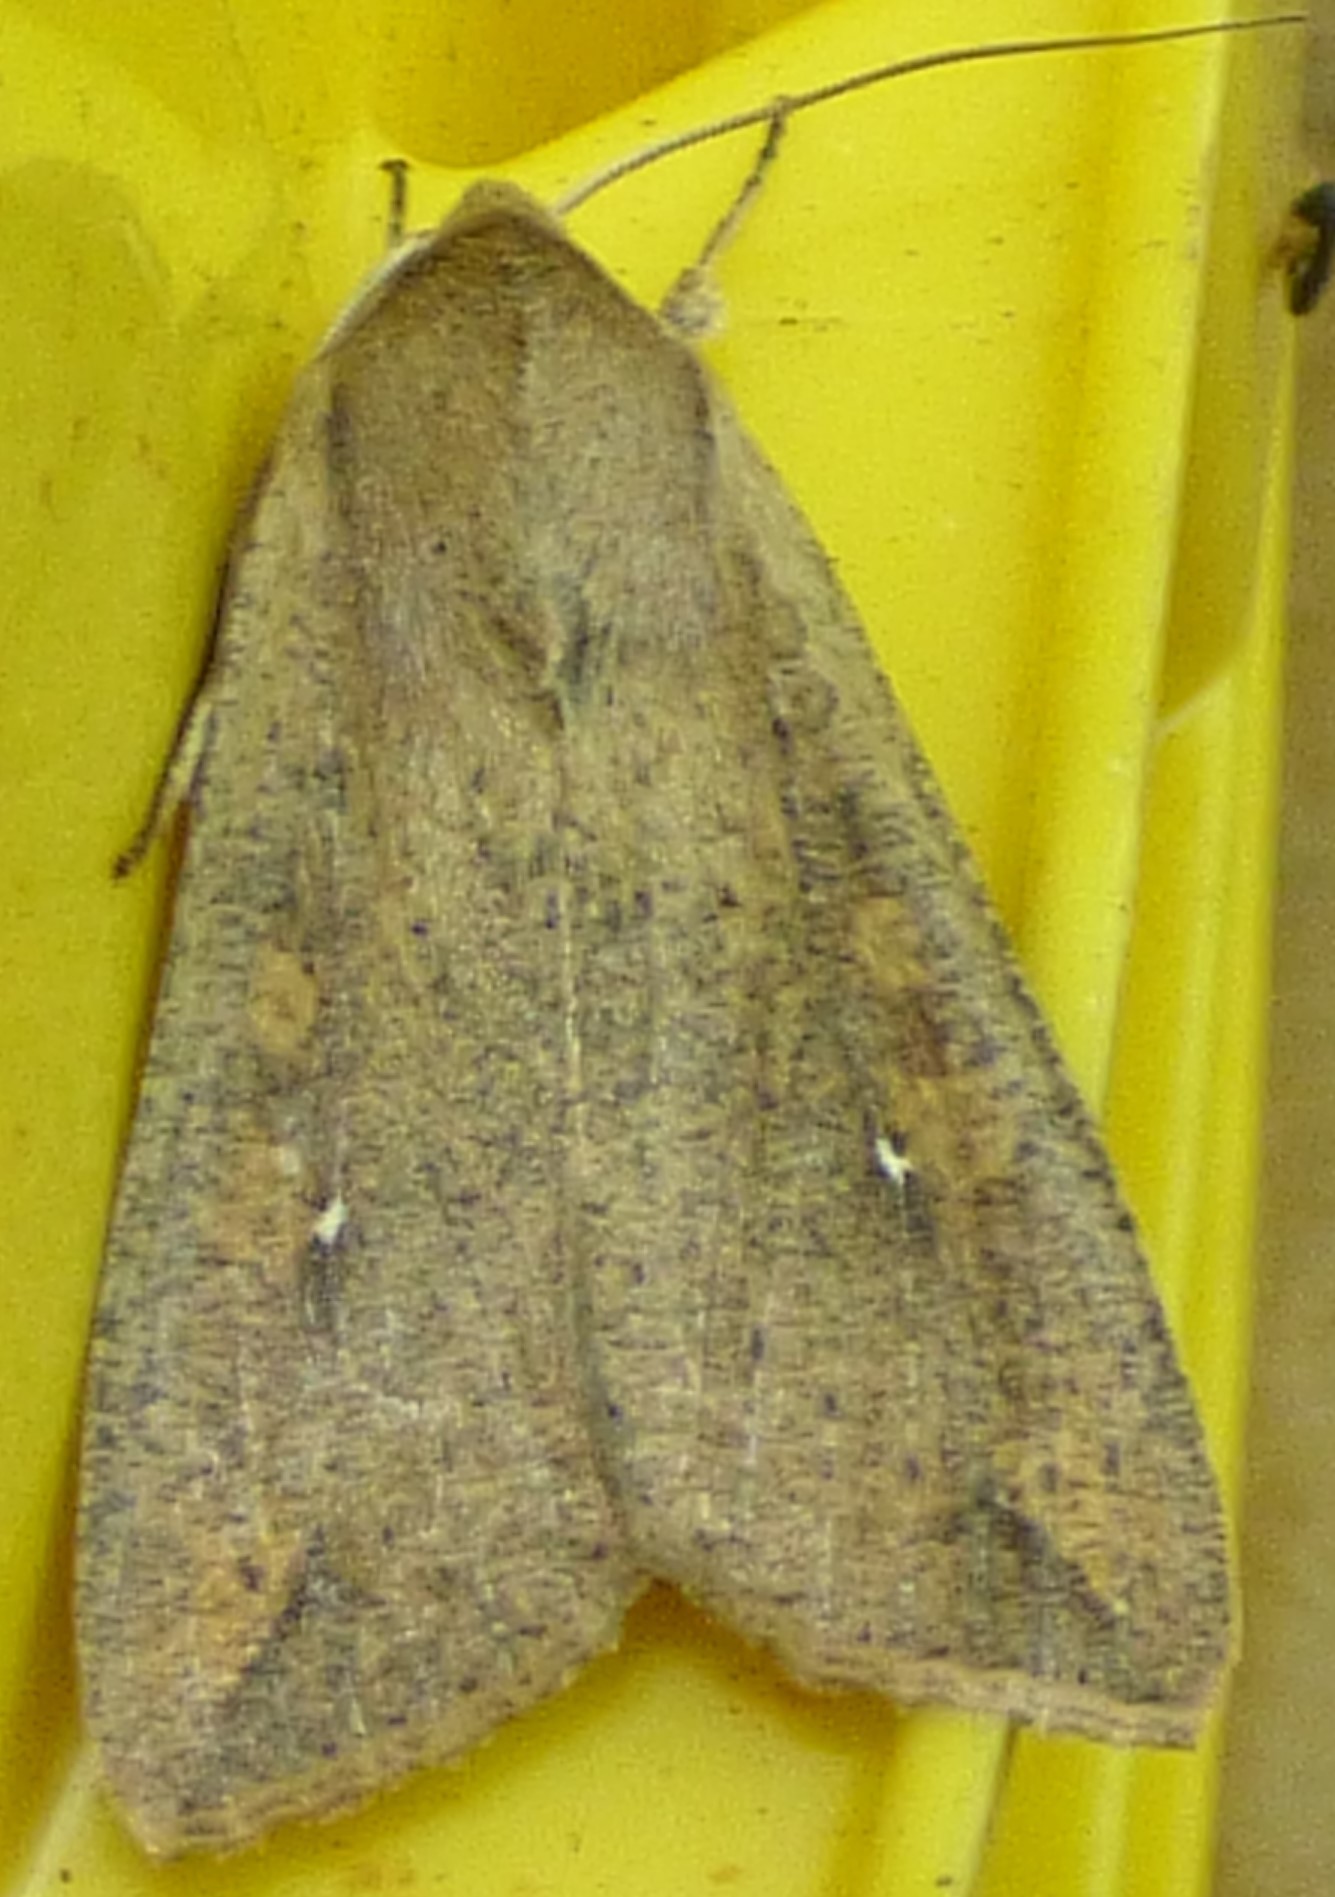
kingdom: Animalia
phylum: Arthropoda
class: Insecta
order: Lepidoptera
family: Noctuidae
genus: Mythimna
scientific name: Mythimna unipuncta
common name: White-speck
